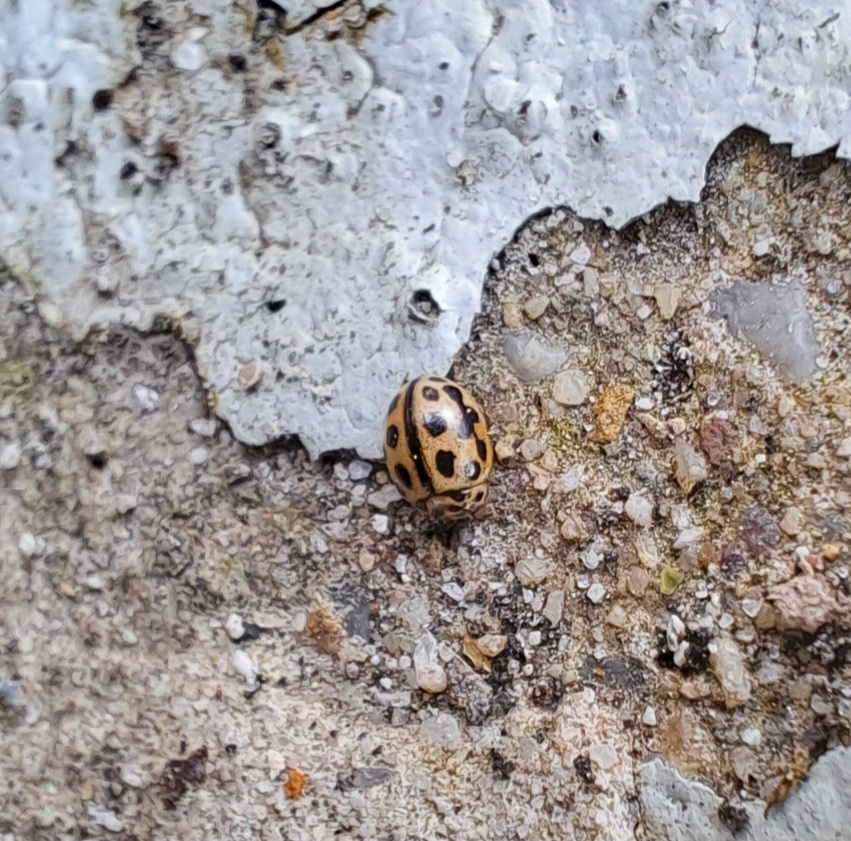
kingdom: Animalia
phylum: Arthropoda
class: Insecta
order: Coleoptera
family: Coccinellidae
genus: Tytthaspis
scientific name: Tytthaspis sedecimpunctata
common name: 16-spot ladybird
